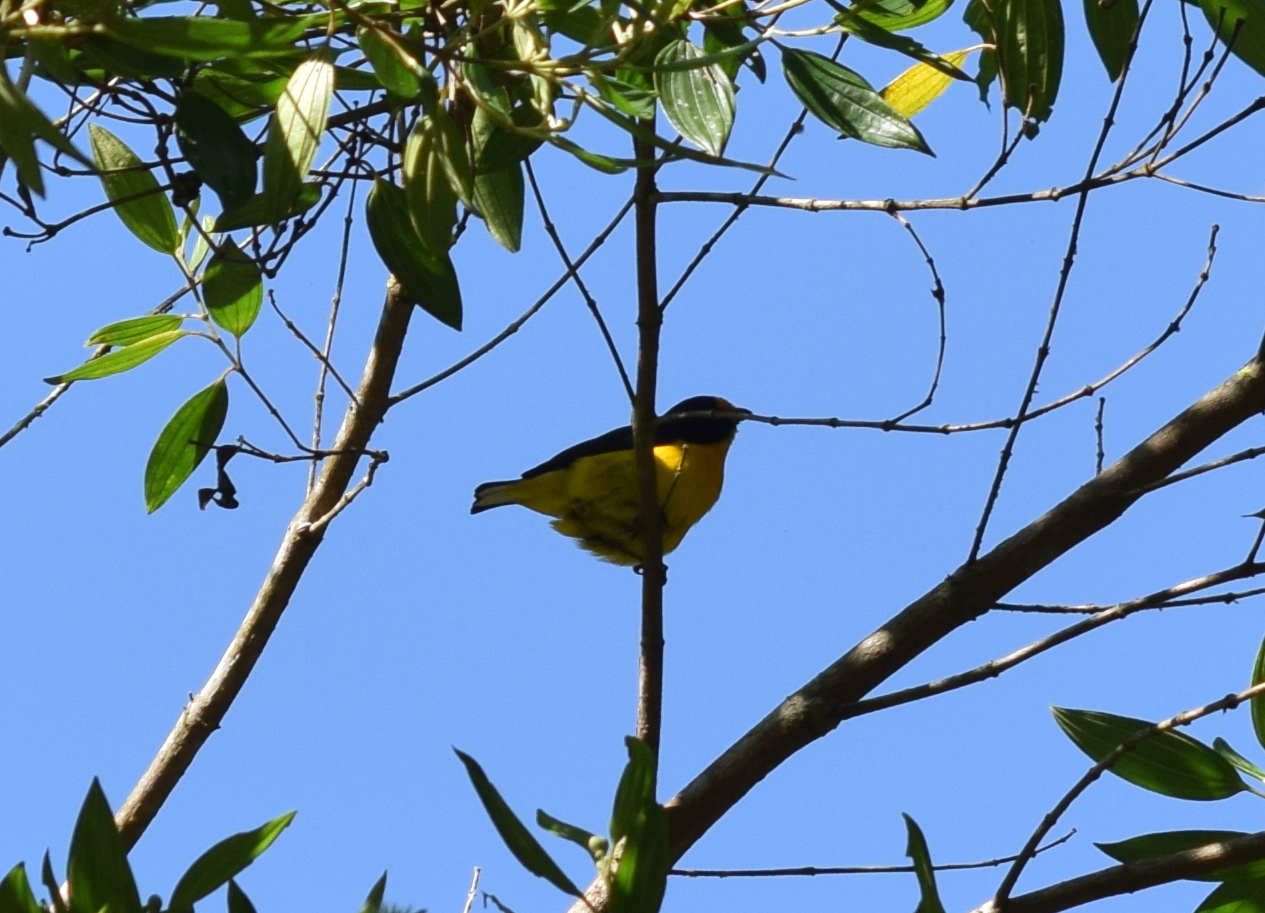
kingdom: Animalia
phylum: Chordata
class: Aves
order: Passeriformes
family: Fringillidae
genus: Euphonia
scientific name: Euphonia violacea
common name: Violaceous euphonia
